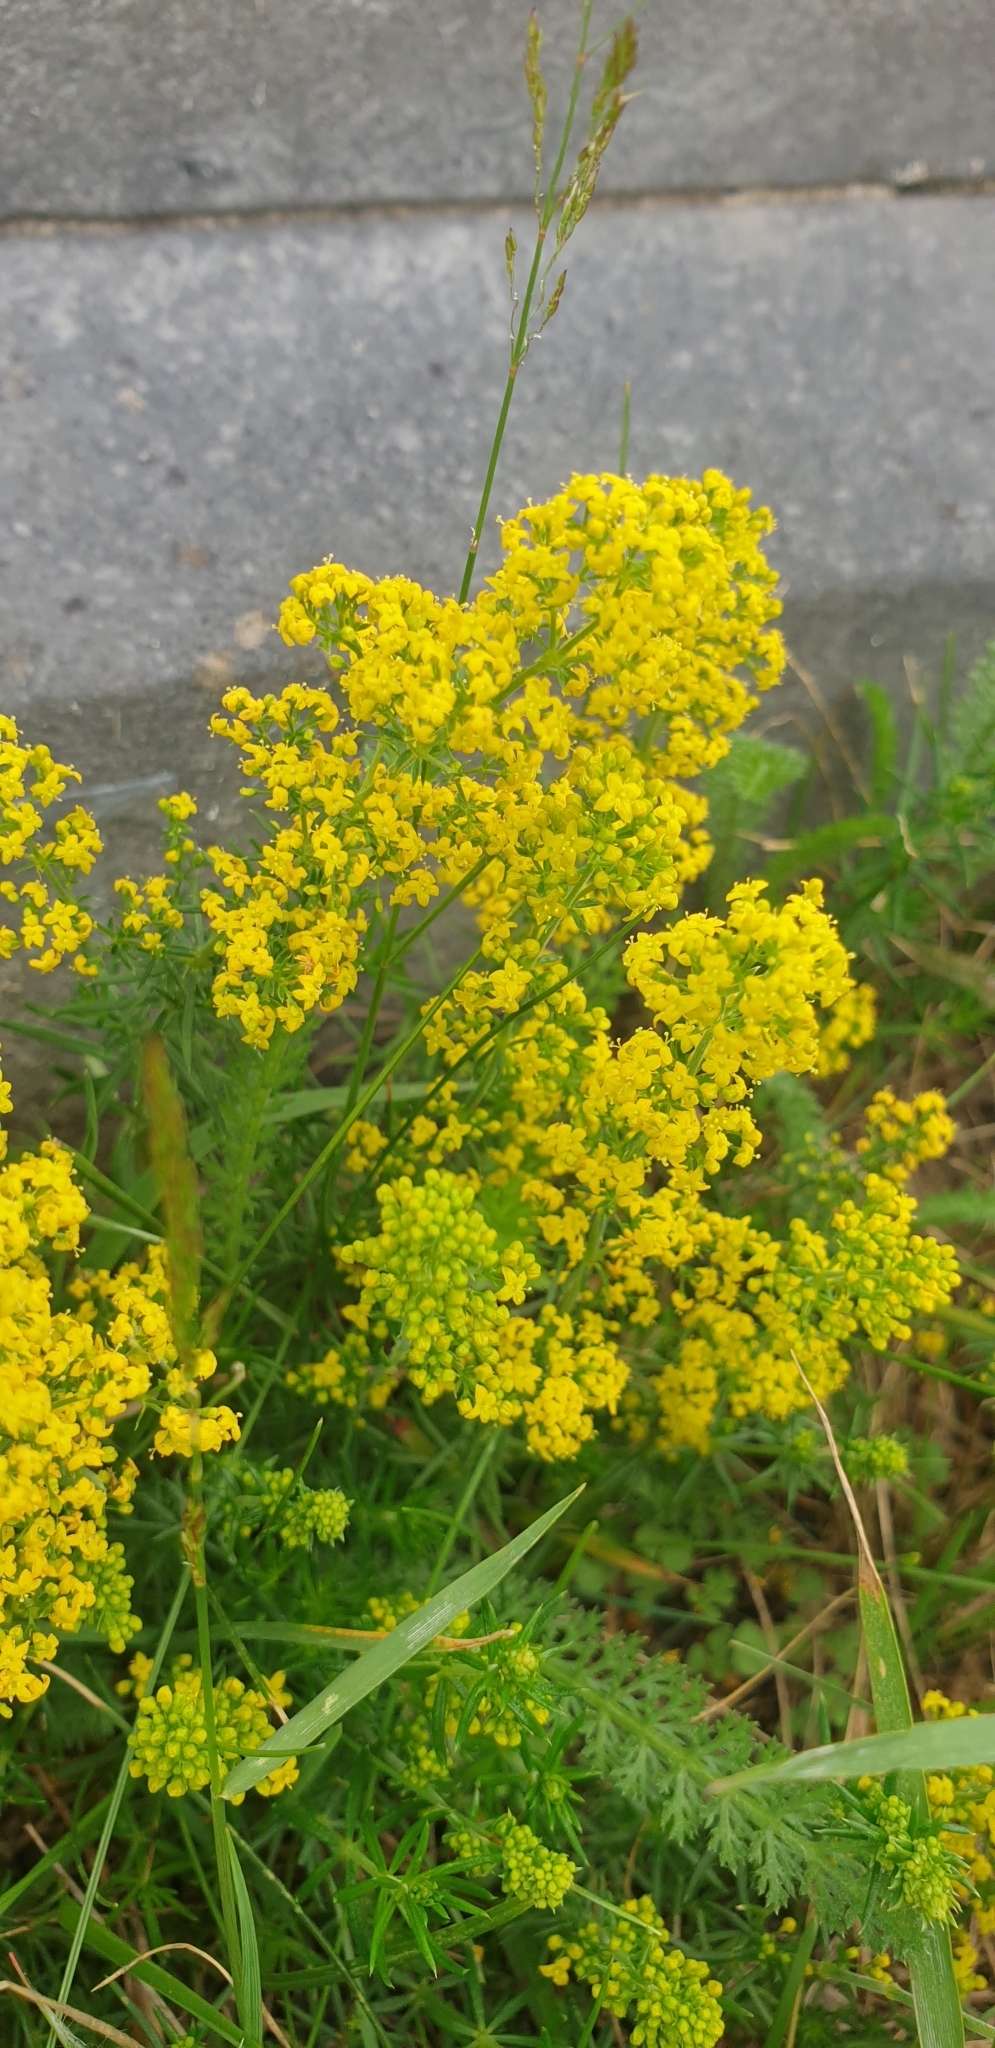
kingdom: Plantae
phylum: Tracheophyta
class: Magnoliopsida
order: Gentianales
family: Rubiaceae
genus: Galium
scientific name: Galium verum
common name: Lady's bedstraw
